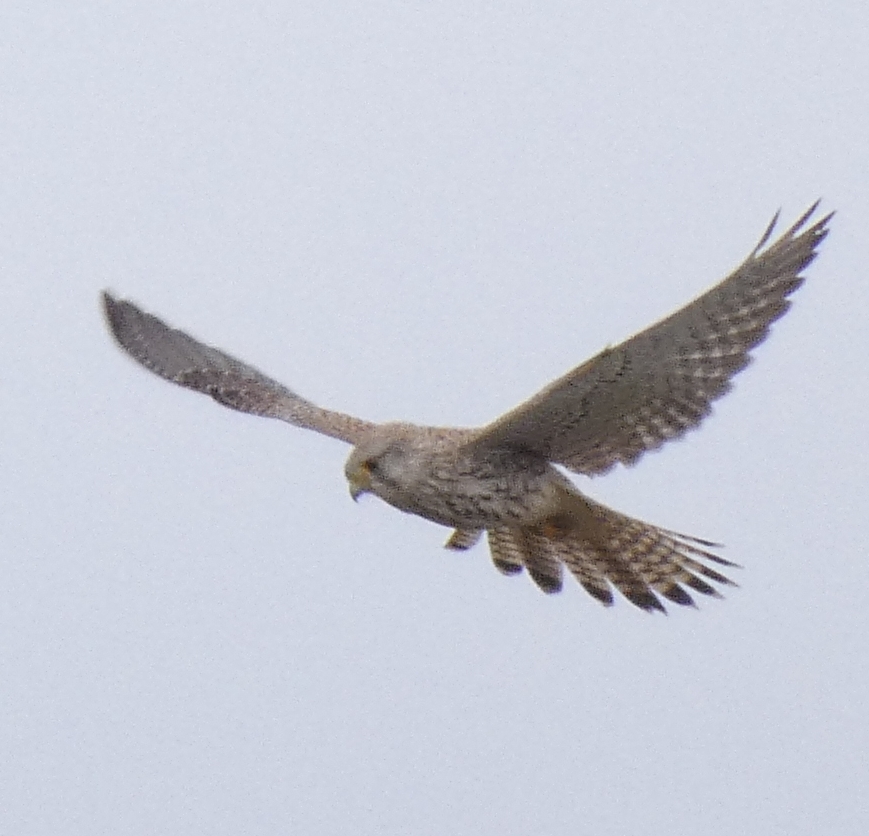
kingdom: Animalia
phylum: Chordata
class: Aves
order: Falconiformes
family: Falconidae
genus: Falco
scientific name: Falco tinnunculus
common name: Common kestrel
